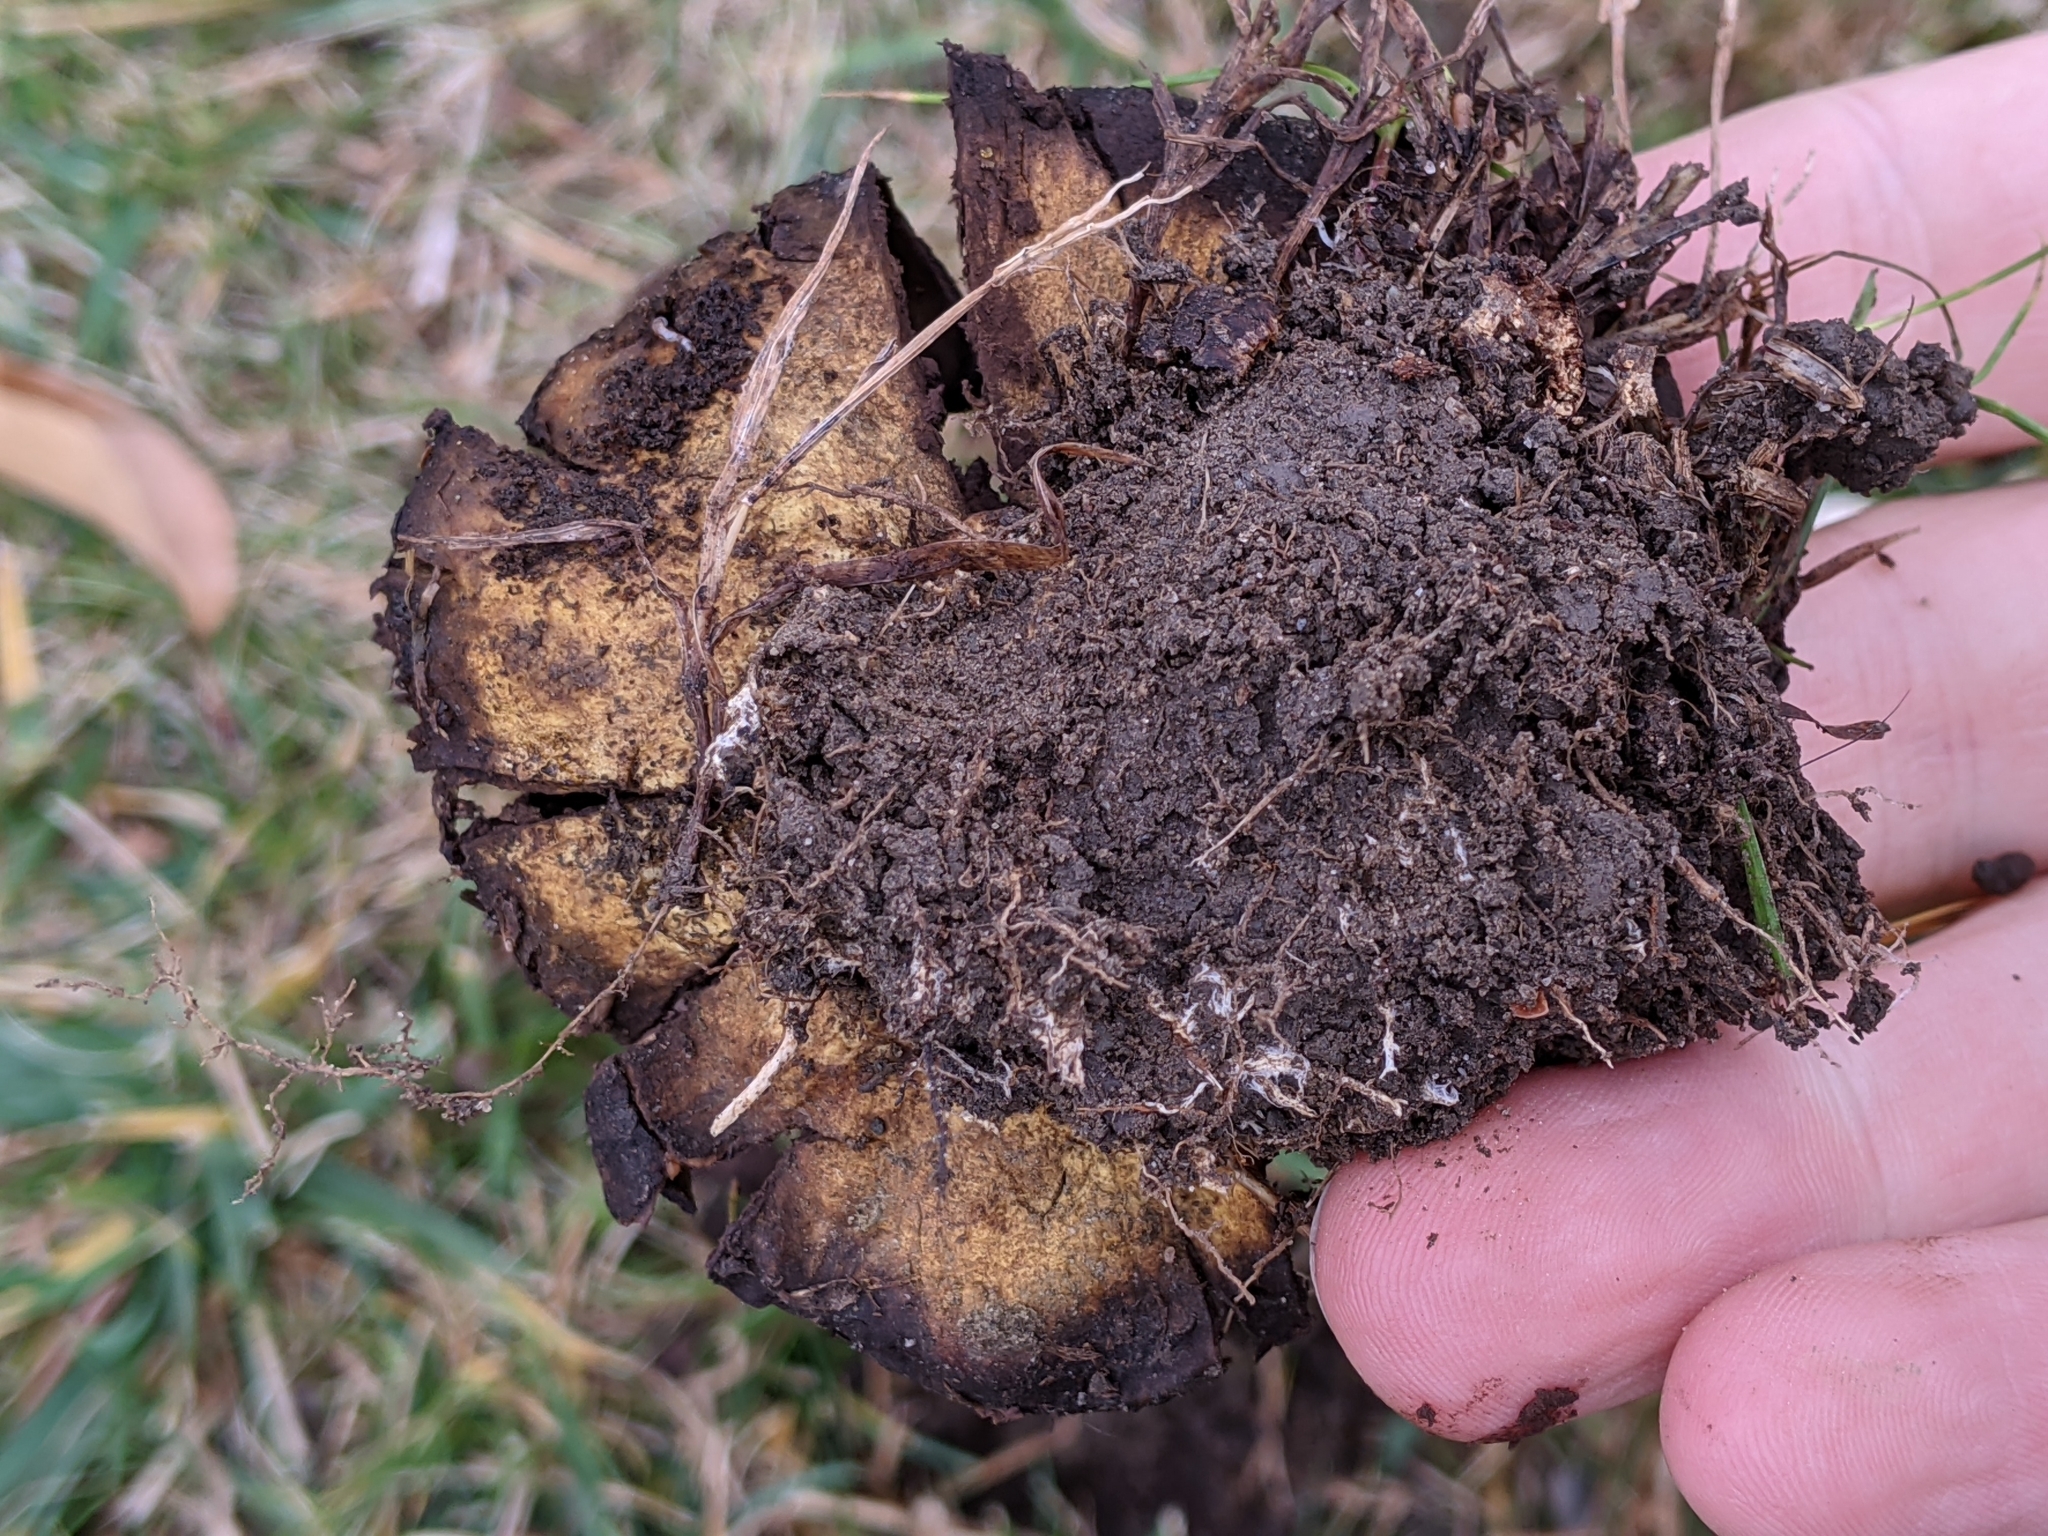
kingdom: Fungi
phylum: Basidiomycota
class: Agaricomycetes
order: Agaricales
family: Lycoperdaceae
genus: Calvatia
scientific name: Calvatia cyathiformis
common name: Purple-spored puffball
